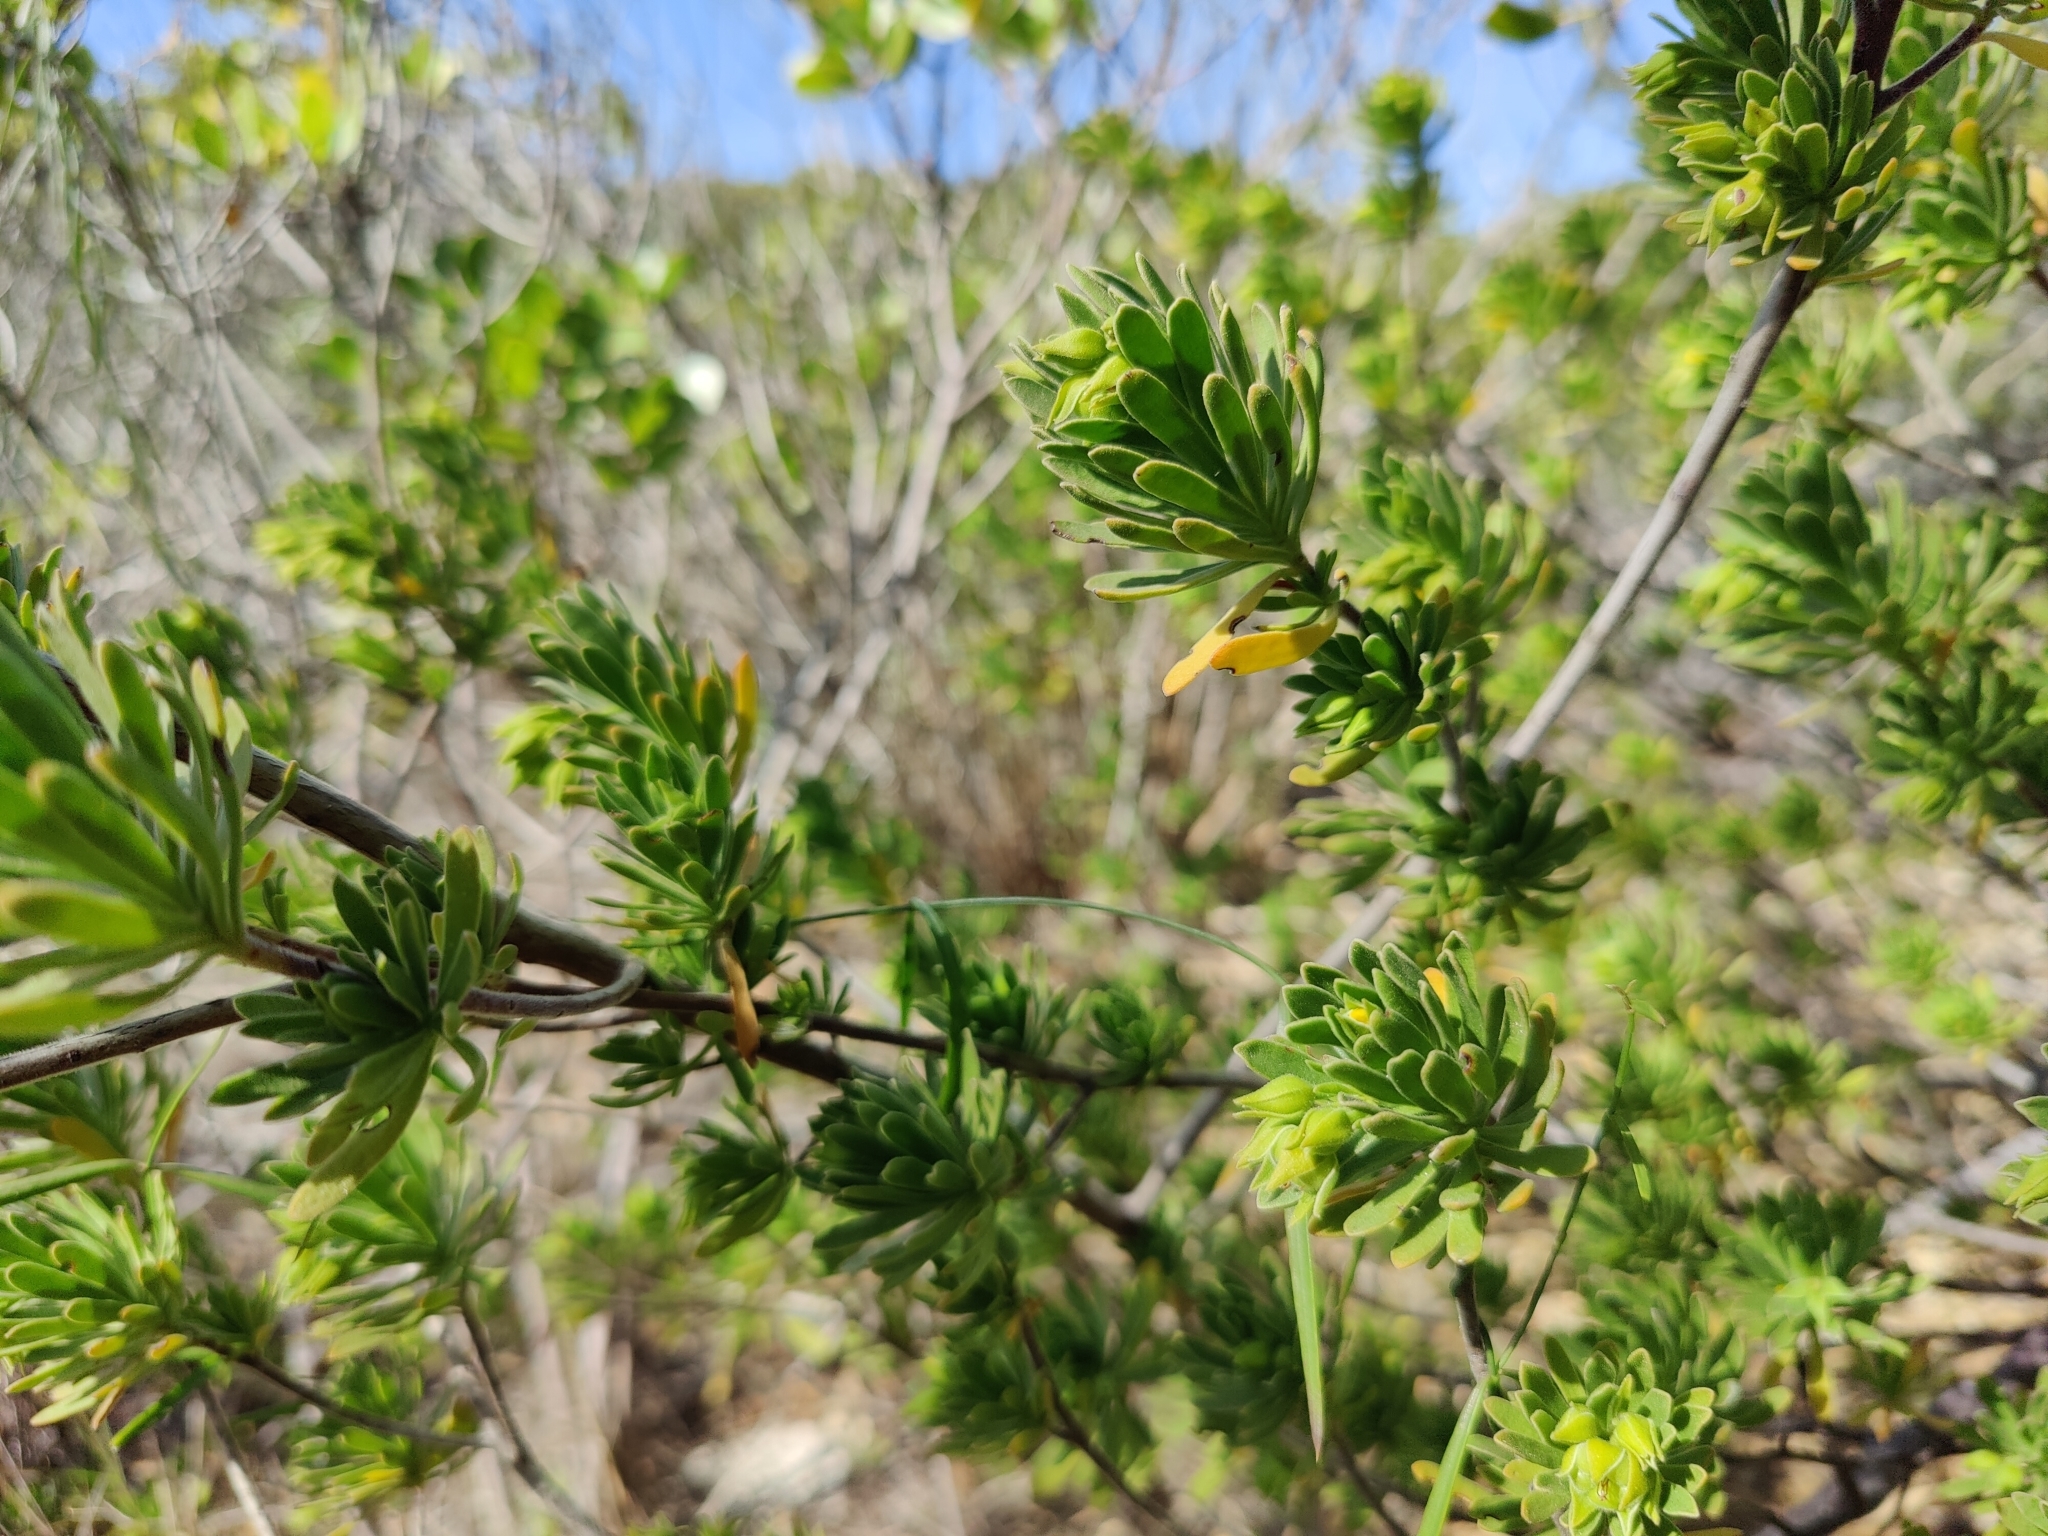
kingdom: Plantae
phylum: Tracheophyta
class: Magnoliopsida
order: Fabales
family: Surianaceae
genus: Suriana
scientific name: Suriana maritima
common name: Bay-cedar
